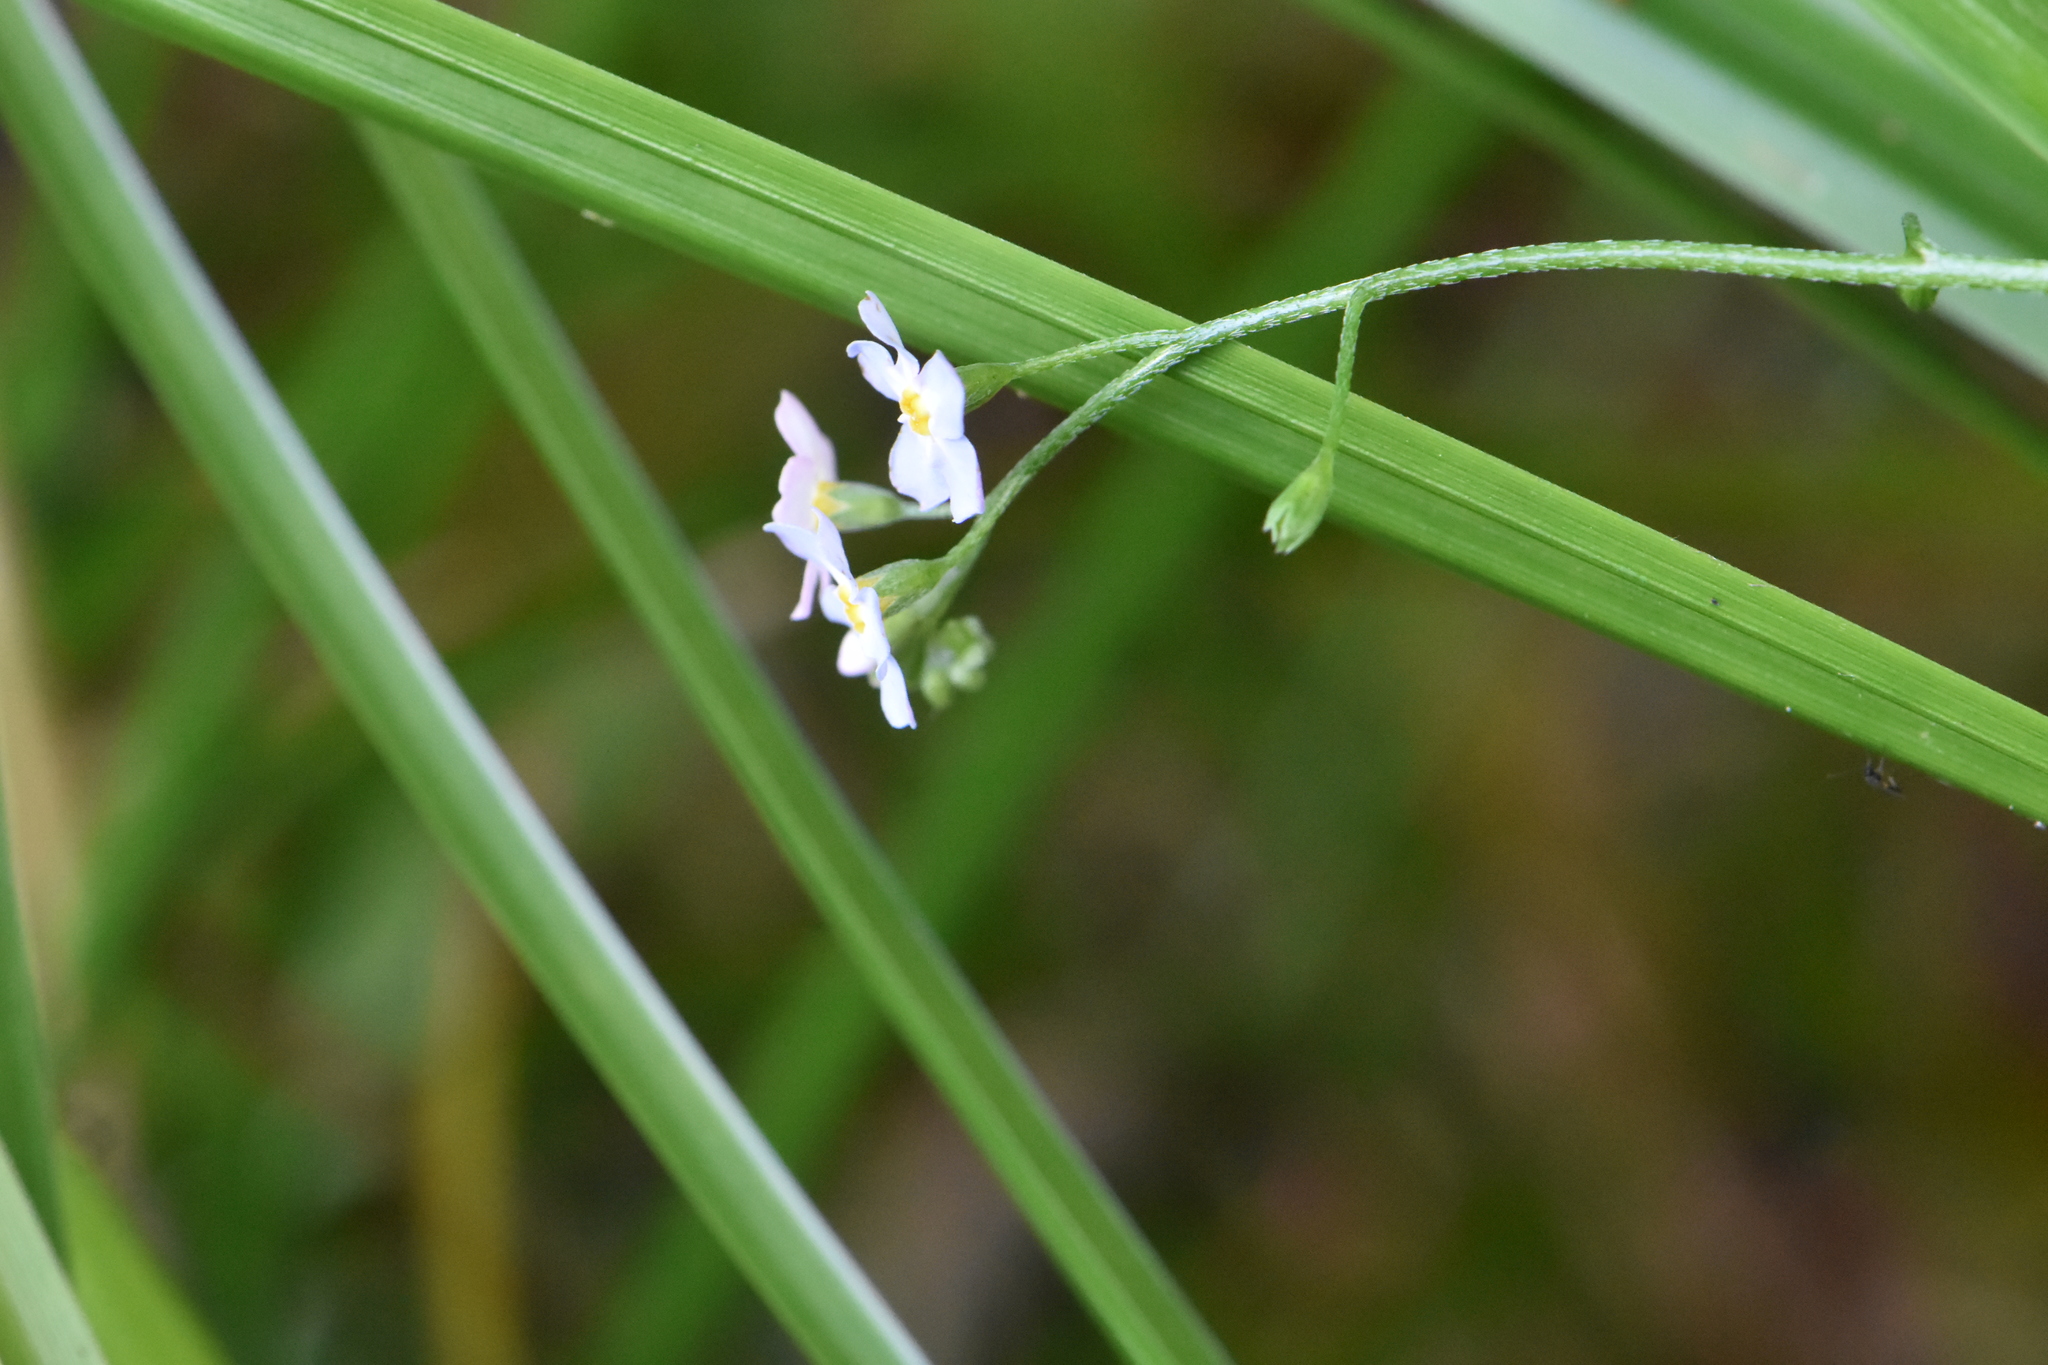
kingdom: Plantae
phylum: Tracheophyta
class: Magnoliopsida
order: Boraginales
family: Boraginaceae
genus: Myosotis
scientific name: Myosotis scorpioides
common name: Water forget-me-not
